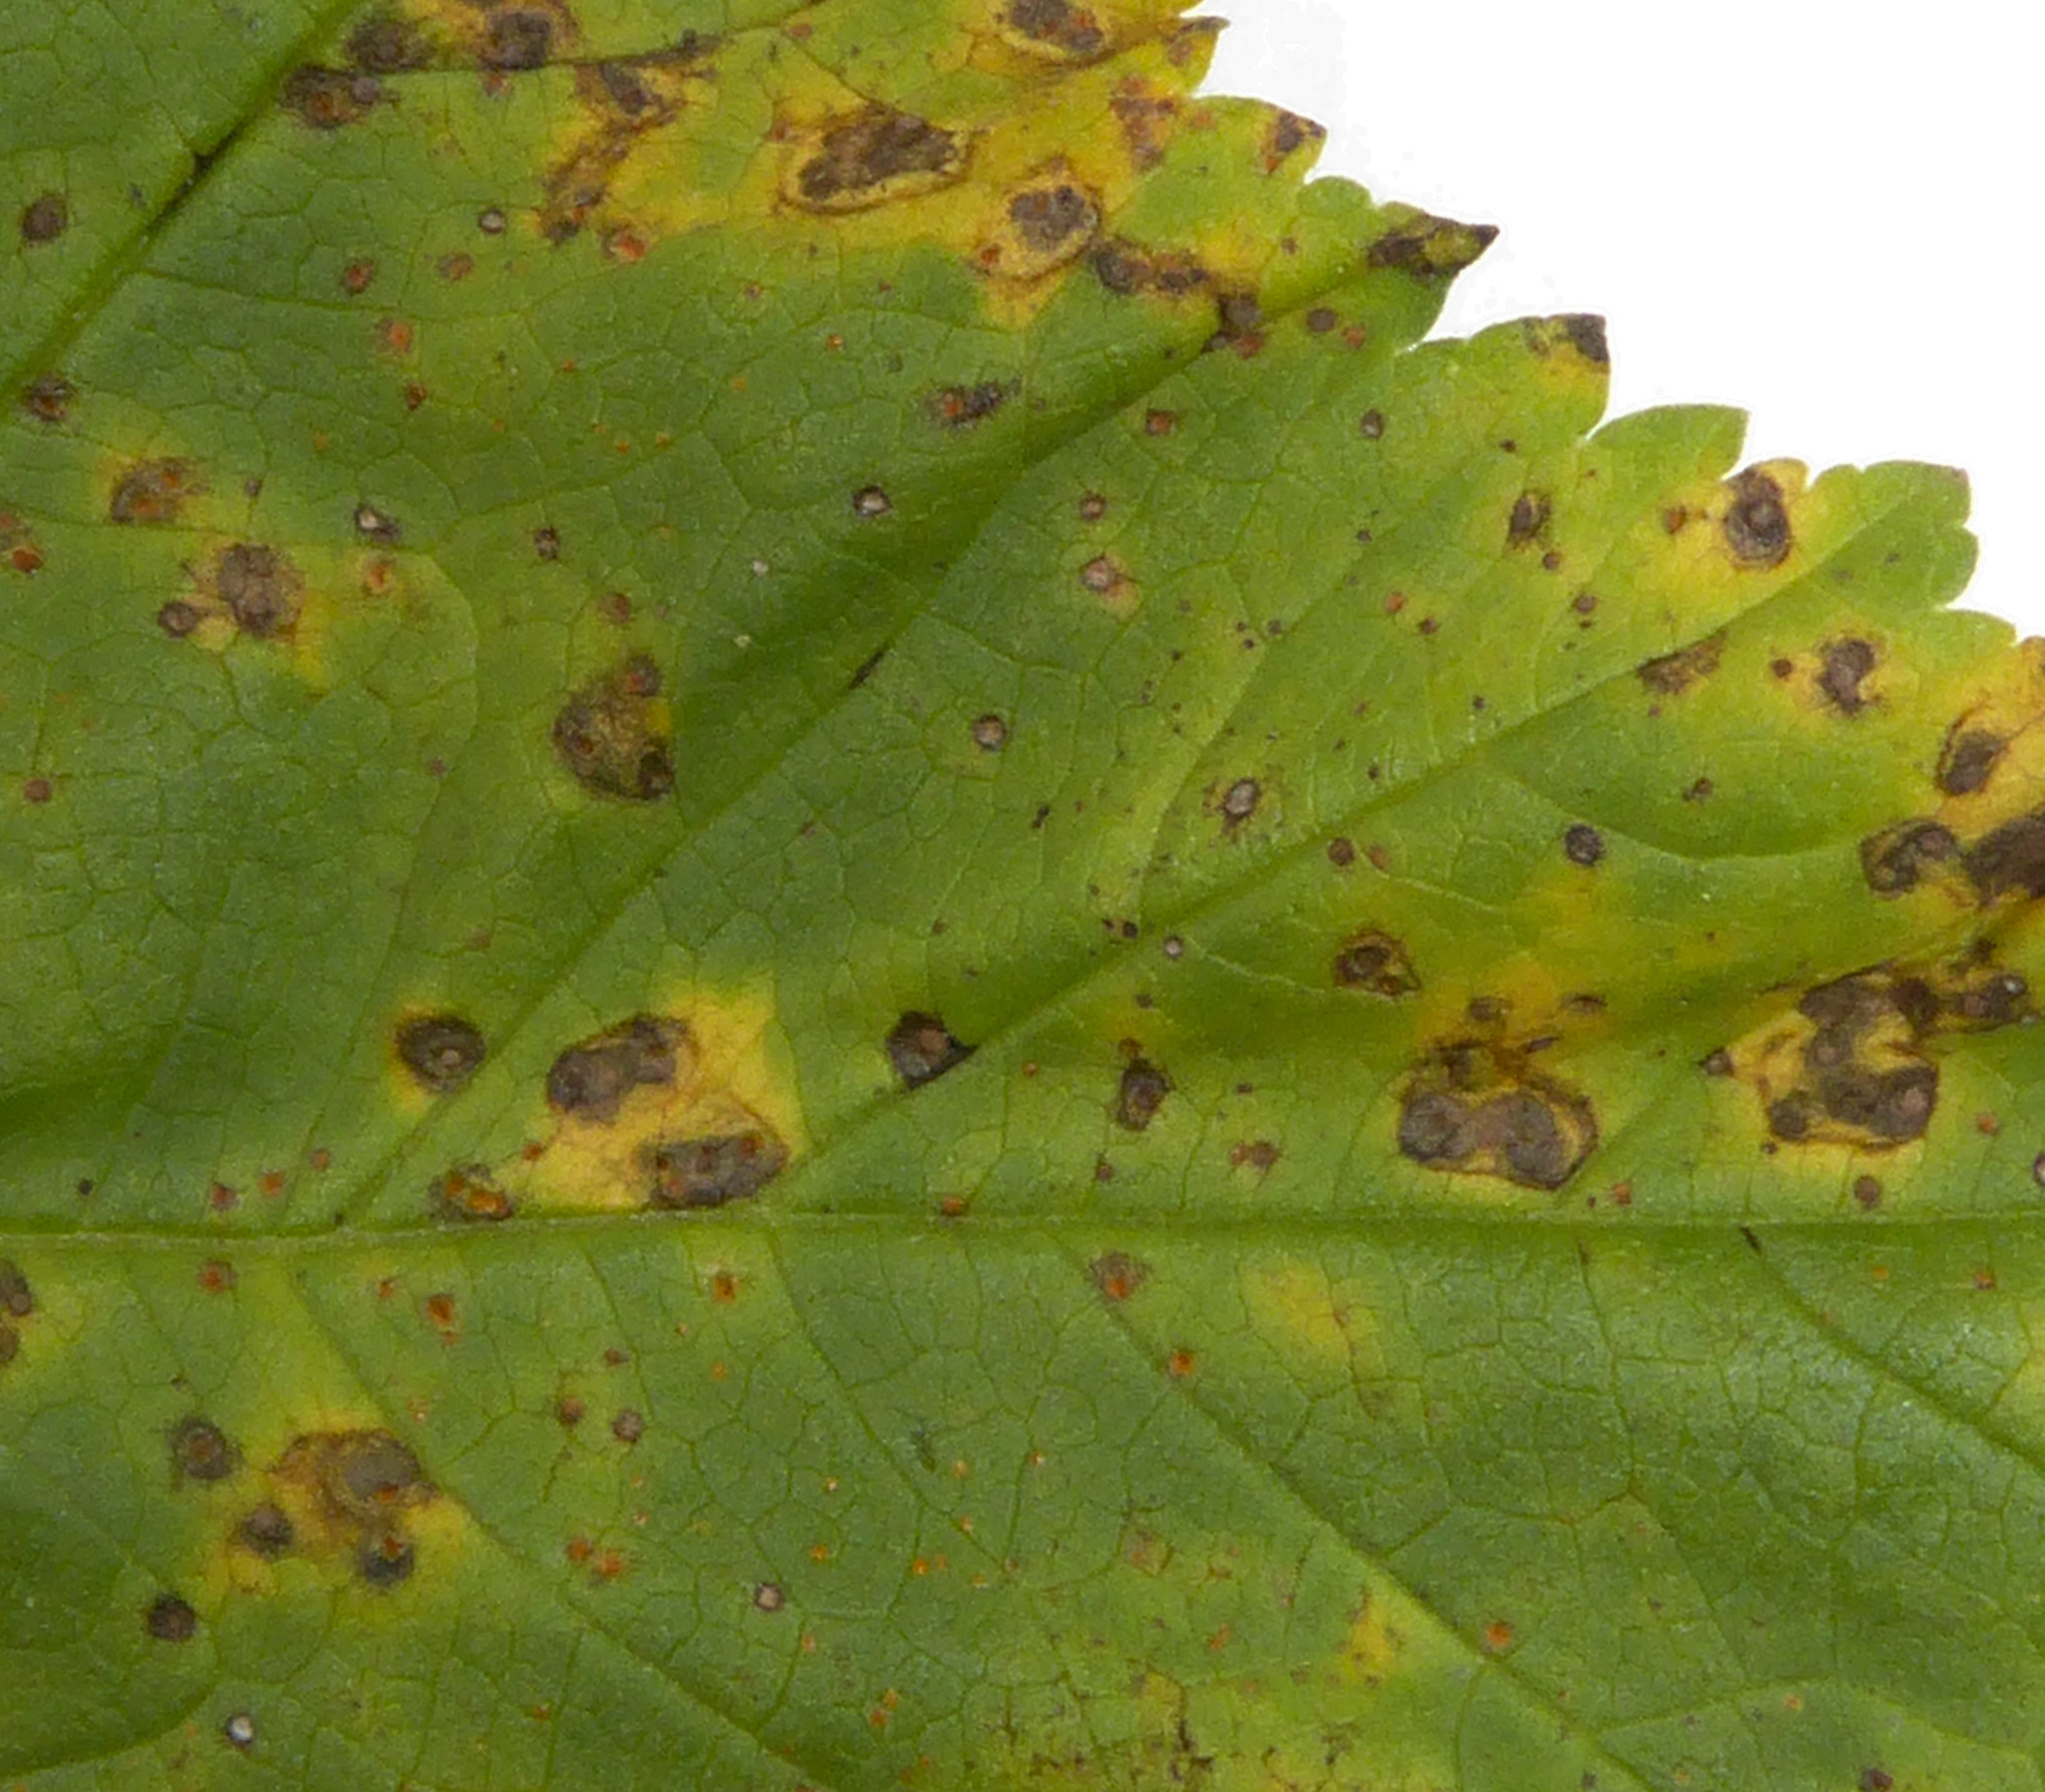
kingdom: Fungi
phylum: Basidiomycota
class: Pucciniomycetes
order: Pucciniales
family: Pucciniaceae
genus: Puccinia
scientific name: Puccinia malvacearum
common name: Hollyhock rust
